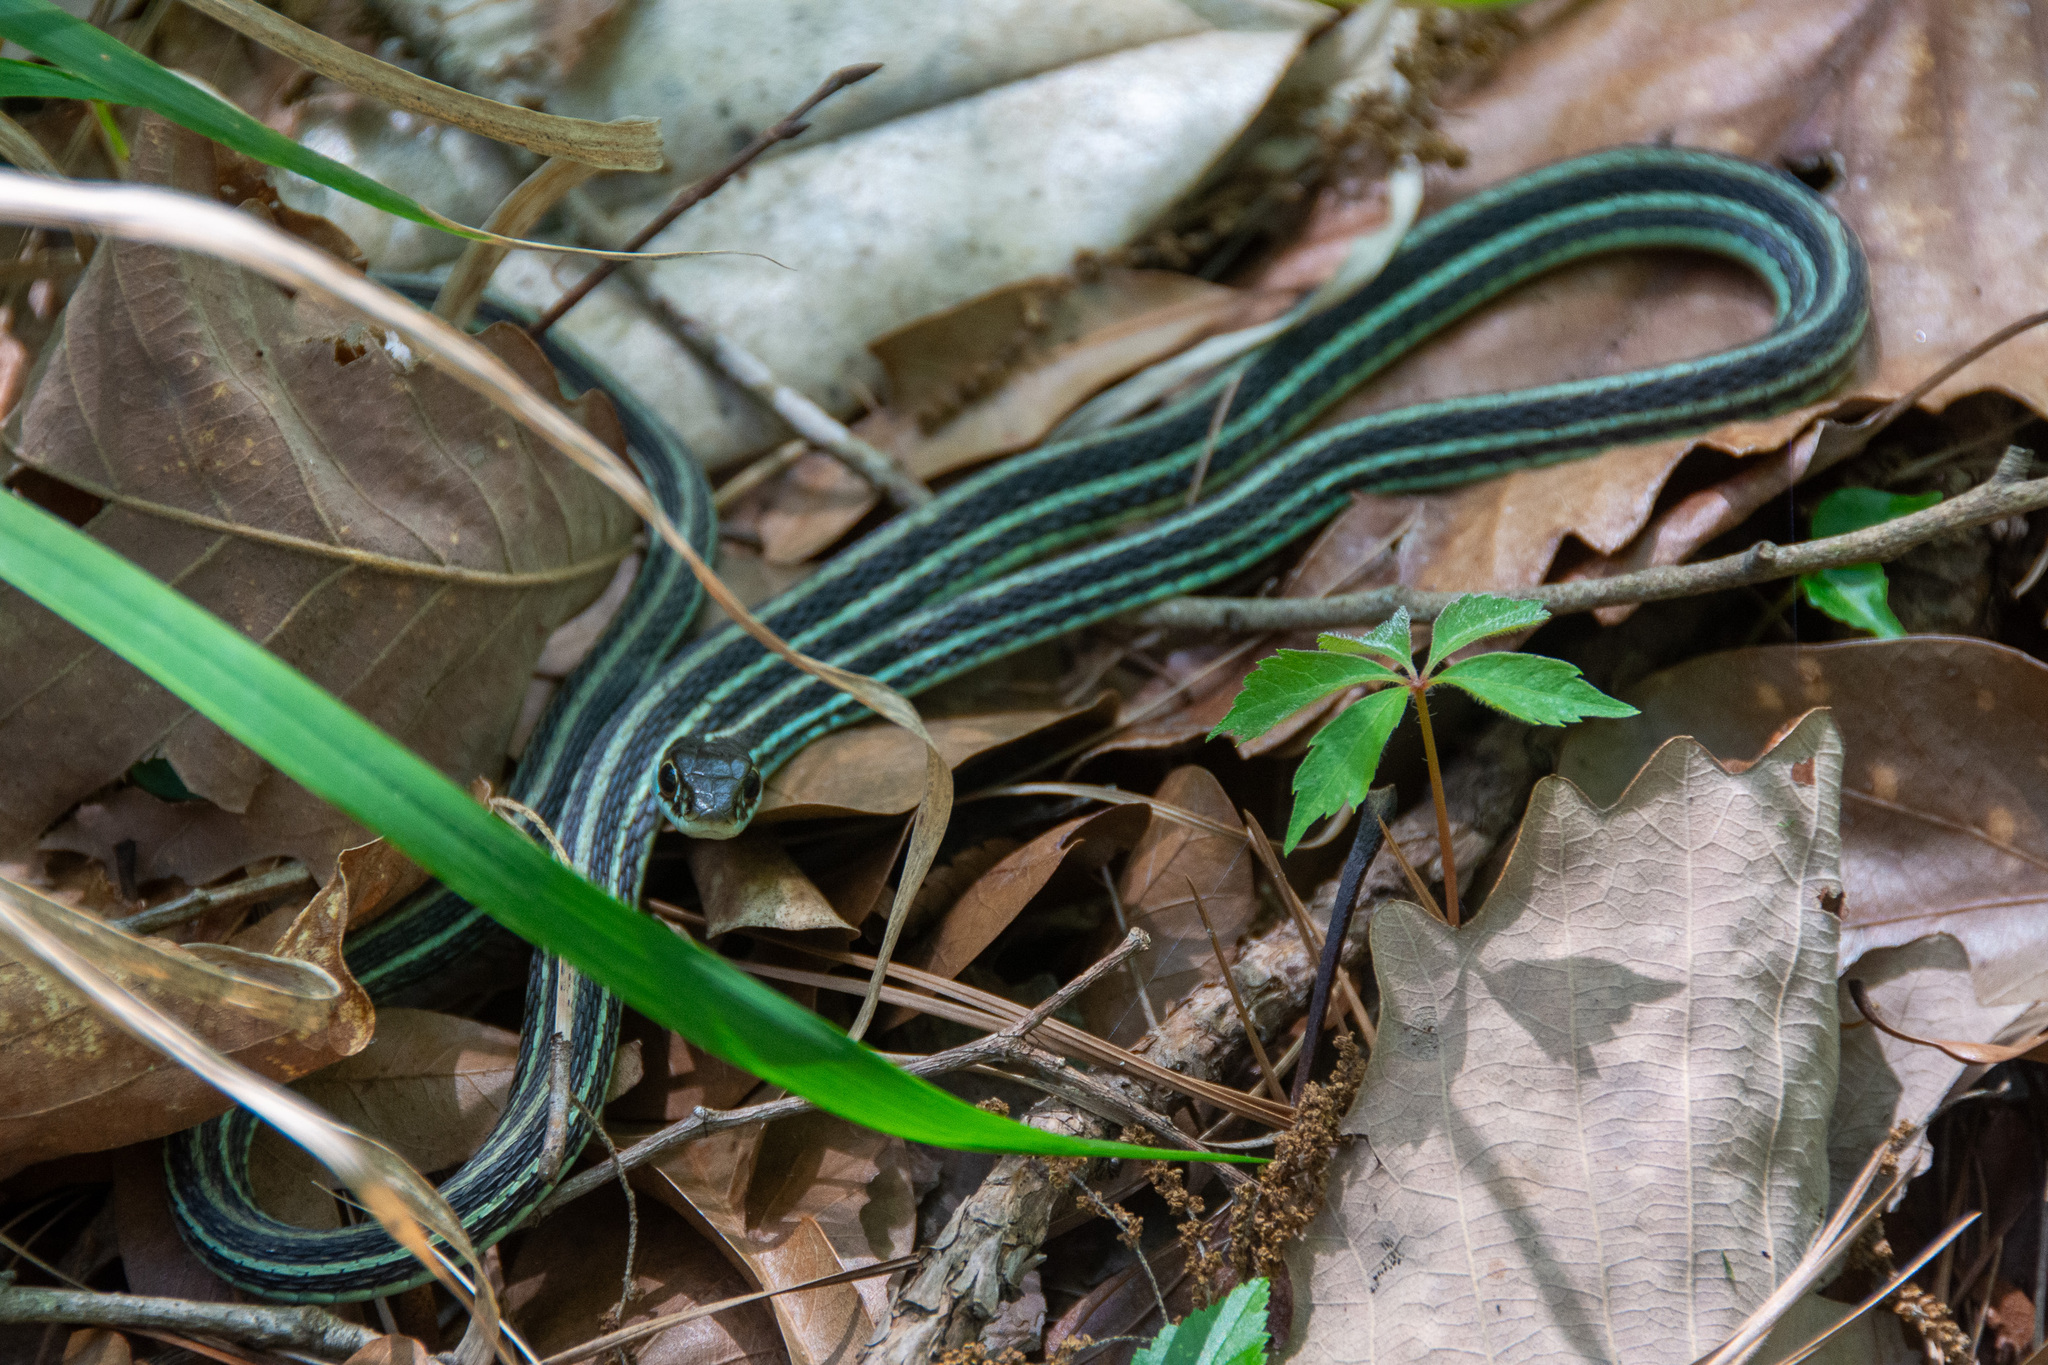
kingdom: Animalia
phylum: Chordata
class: Squamata
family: Colubridae
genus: Thamnophis
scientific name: Thamnophis proximus
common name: Western ribbon snake
